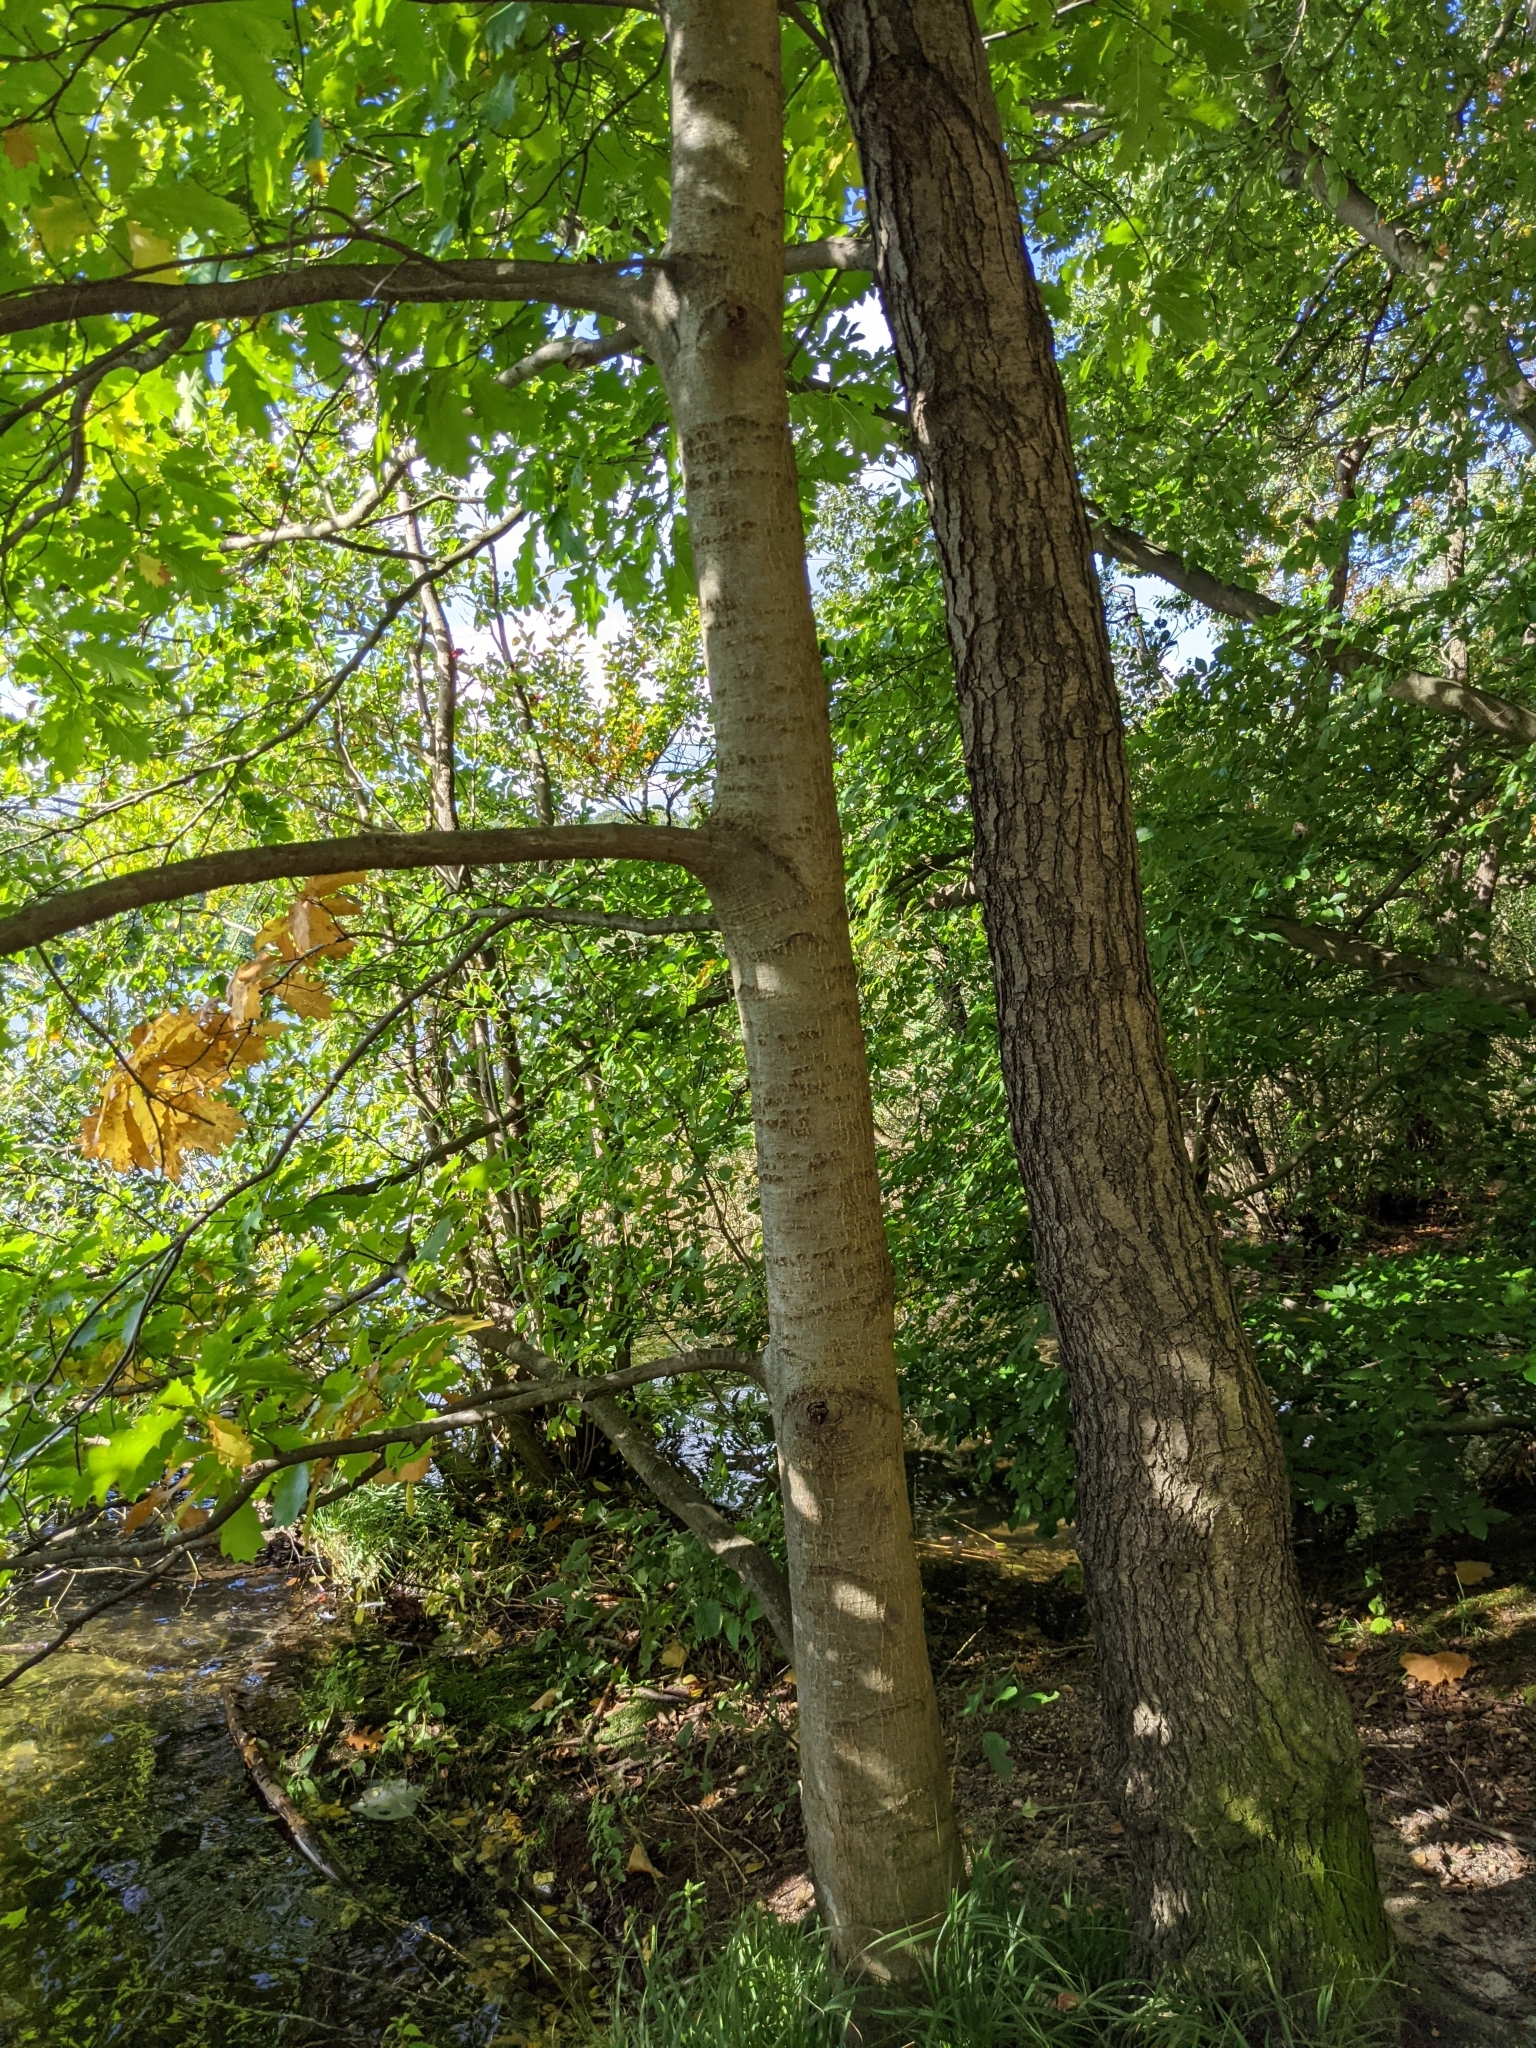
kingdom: Plantae
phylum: Tracheophyta
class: Magnoliopsida
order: Fagales
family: Fagaceae
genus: Quercus
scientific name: Quercus rubra
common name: Red oak
